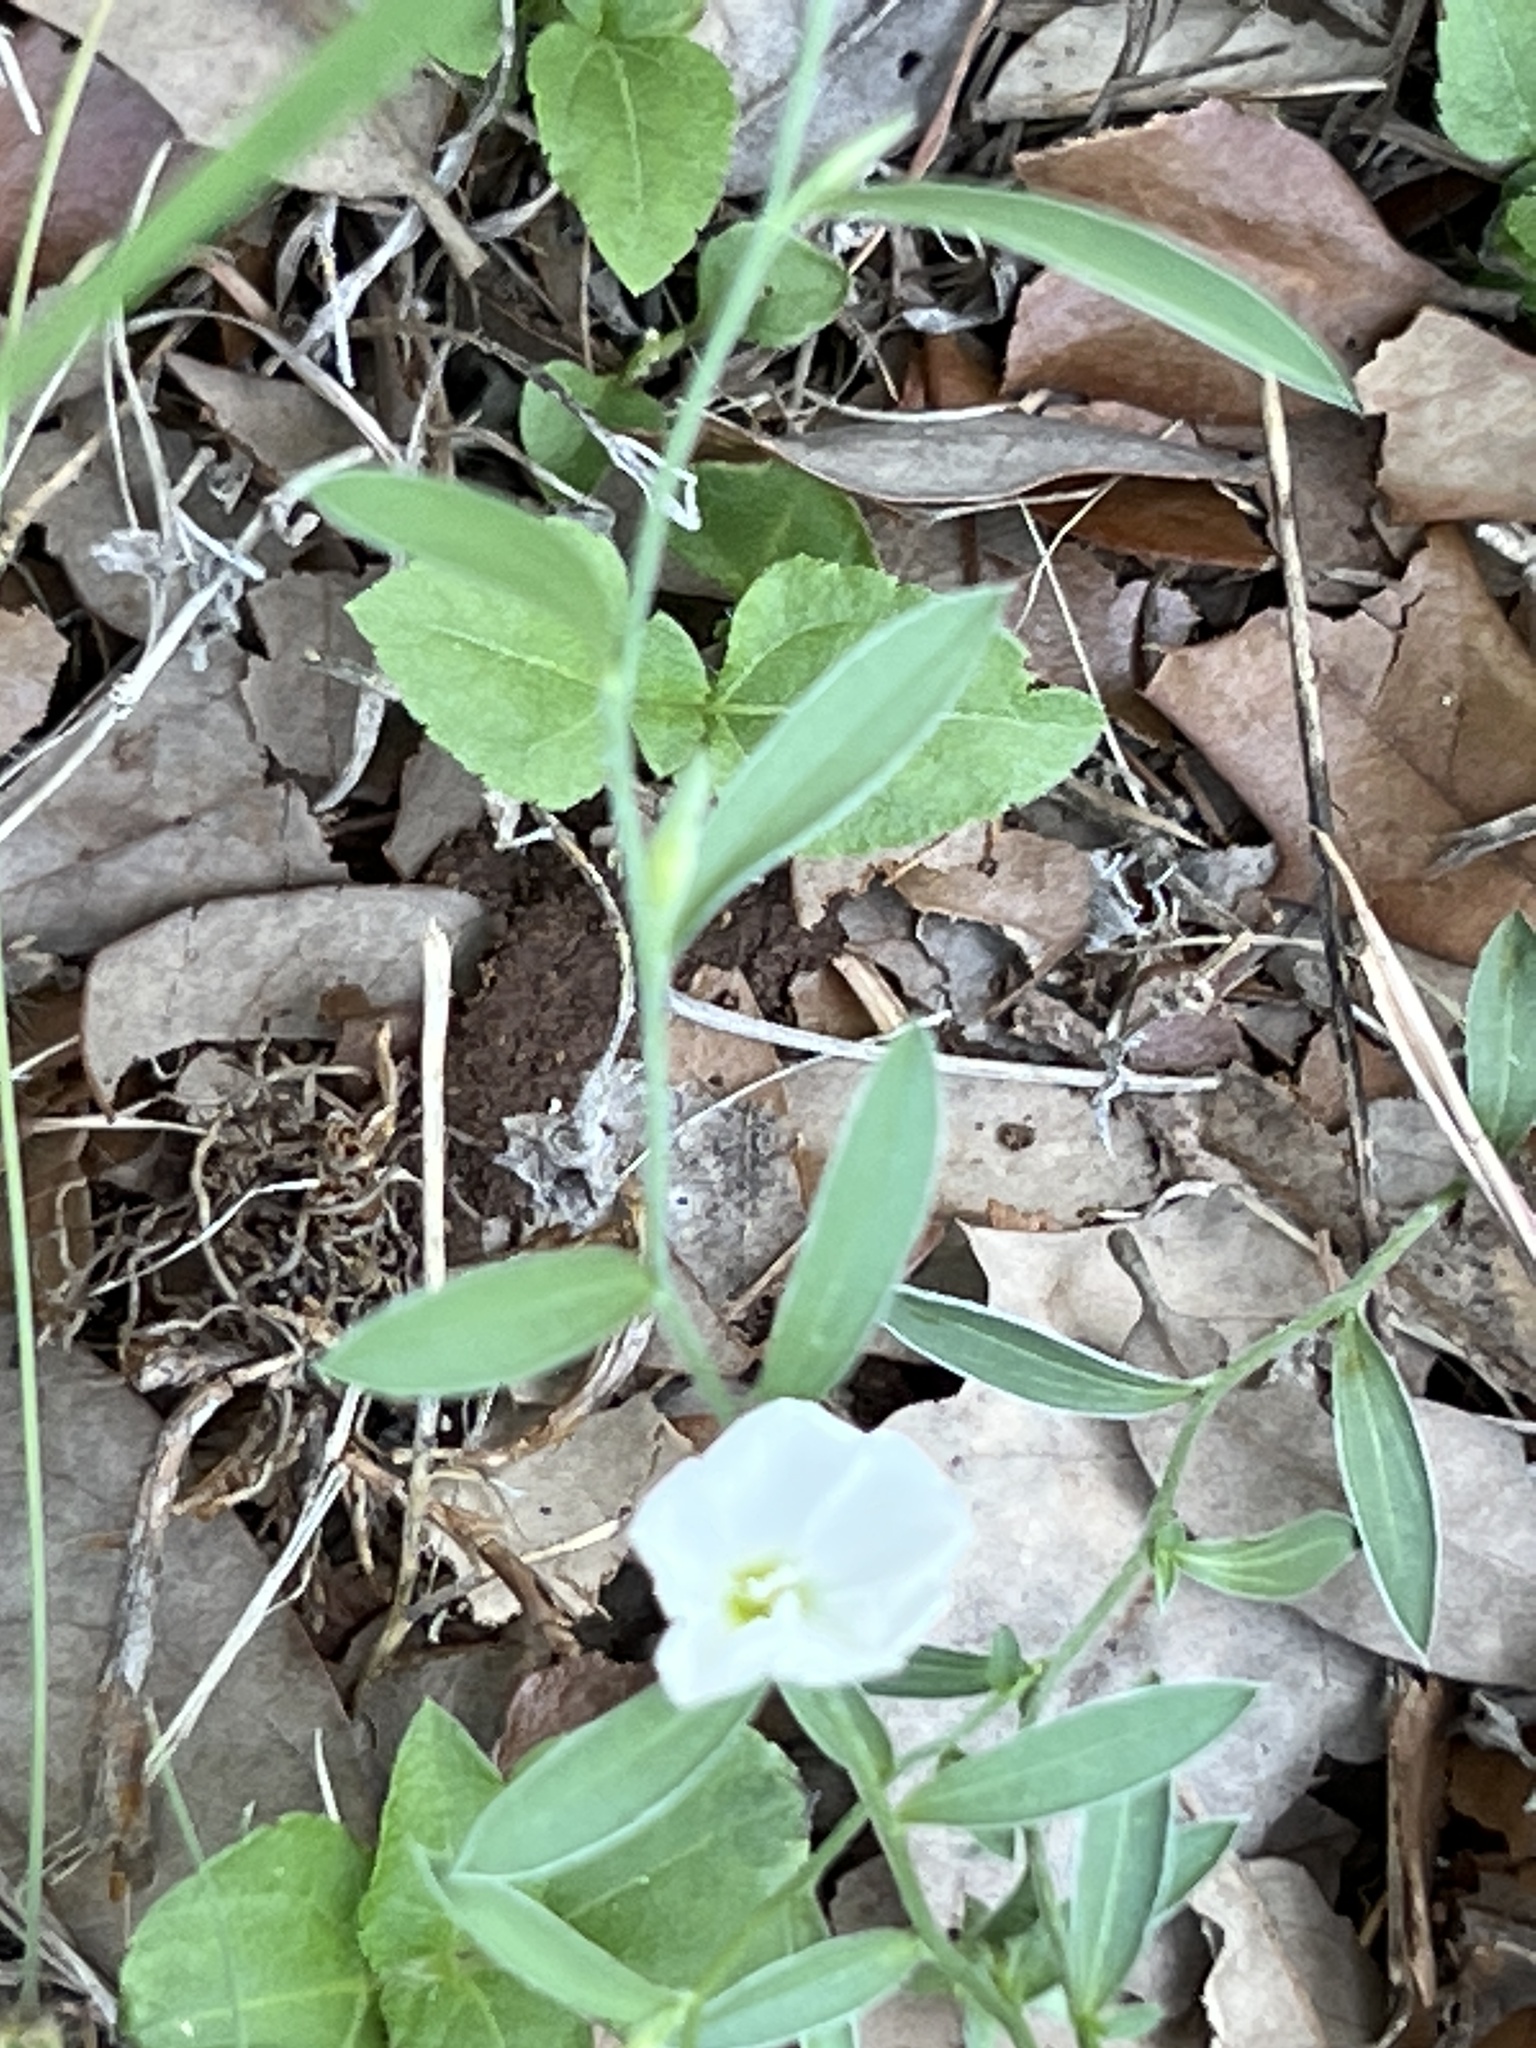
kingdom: Plantae
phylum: Tracheophyta
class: Magnoliopsida
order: Solanales
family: Convolvulaceae
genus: Evolvulus
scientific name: Evolvulus sericeus
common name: Blue dots
